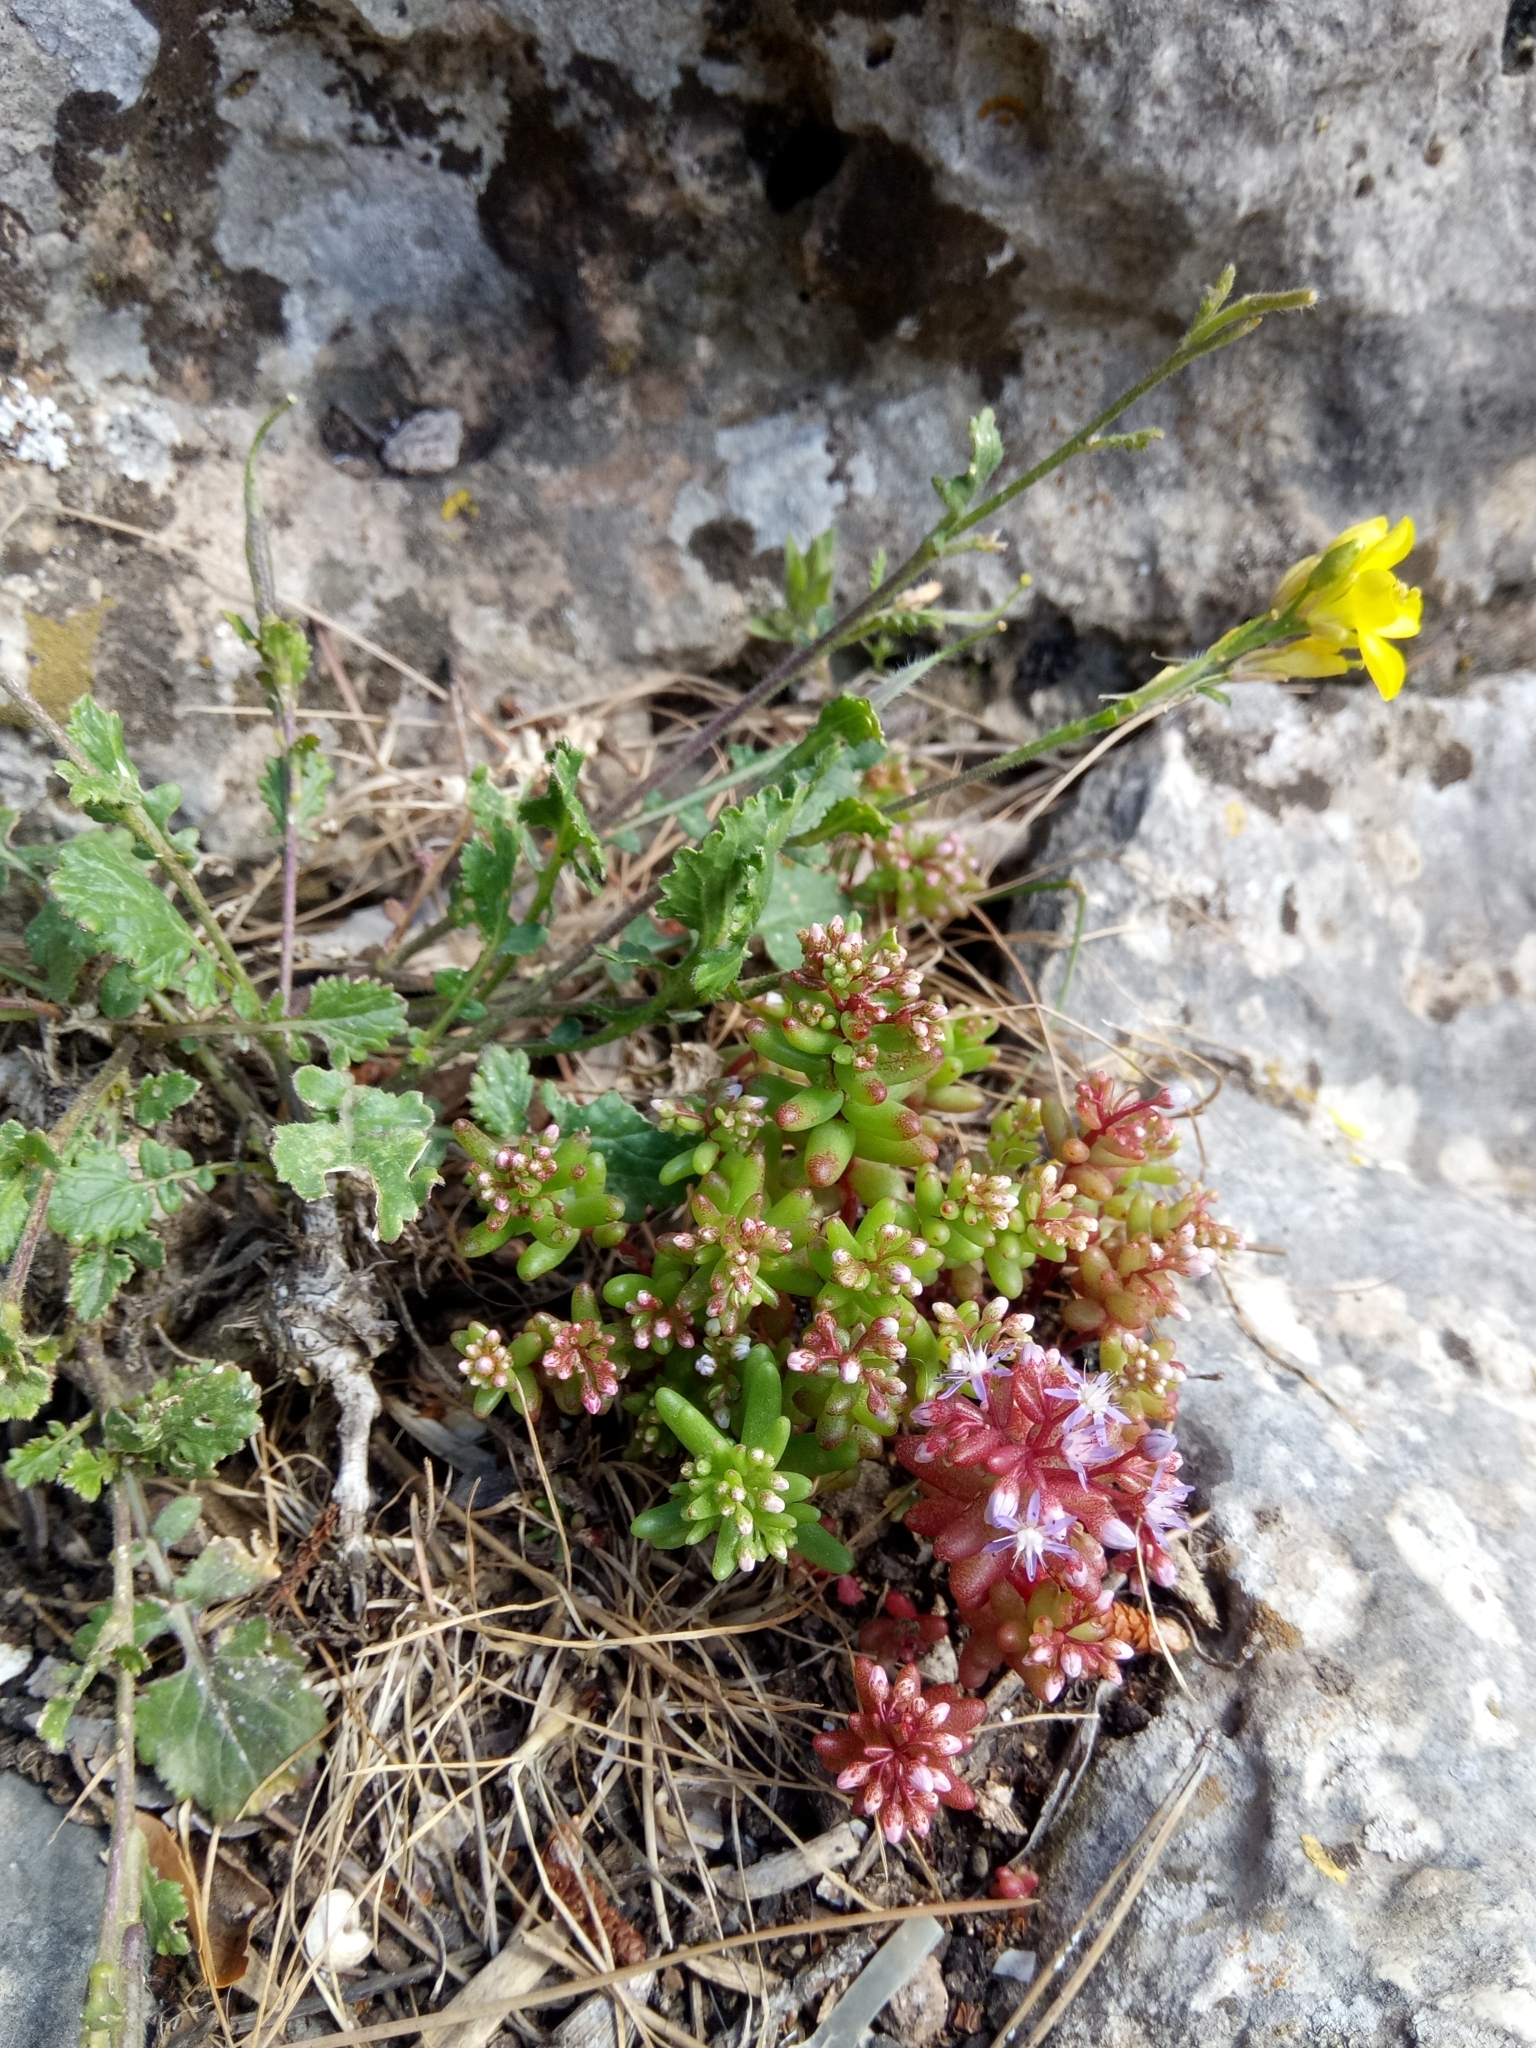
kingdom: Plantae
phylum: Tracheophyta
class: Magnoliopsida
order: Saxifragales
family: Crassulaceae
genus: Sedum
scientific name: Sedum caeruleum
